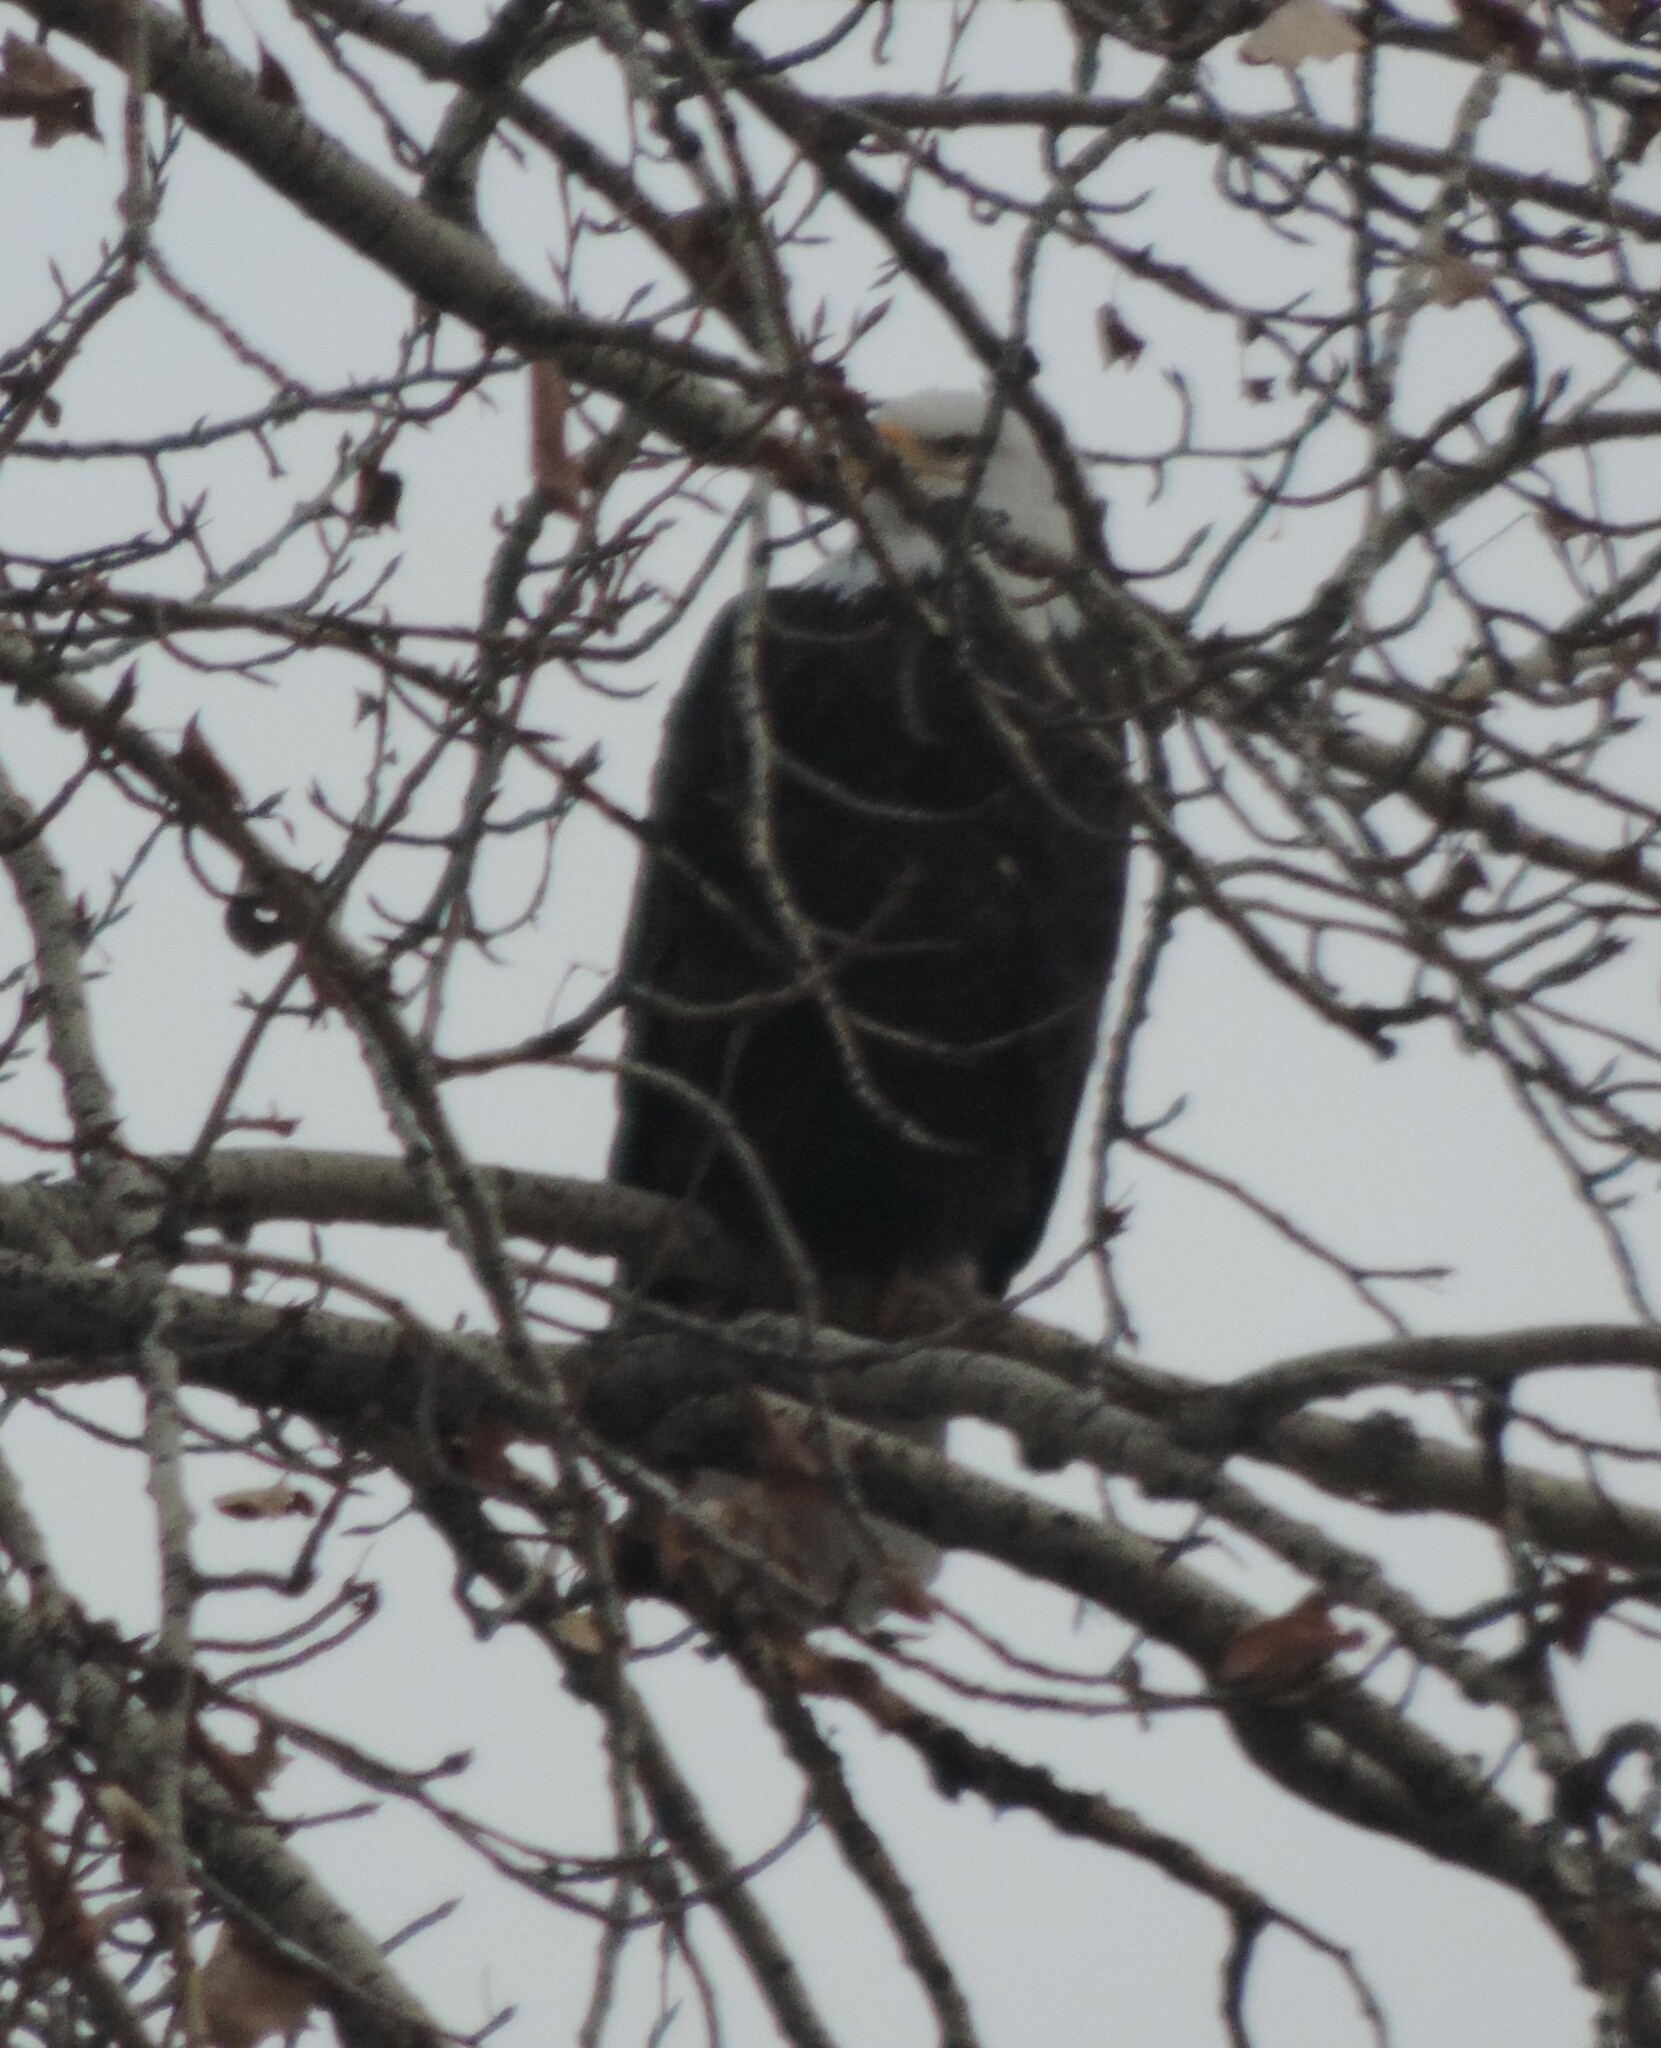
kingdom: Animalia
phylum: Chordata
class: Aves
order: Accipitriformes
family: Accipitridae
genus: Haliaeetus
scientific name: Haliaeetus leucocephalus
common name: Bald eagle
